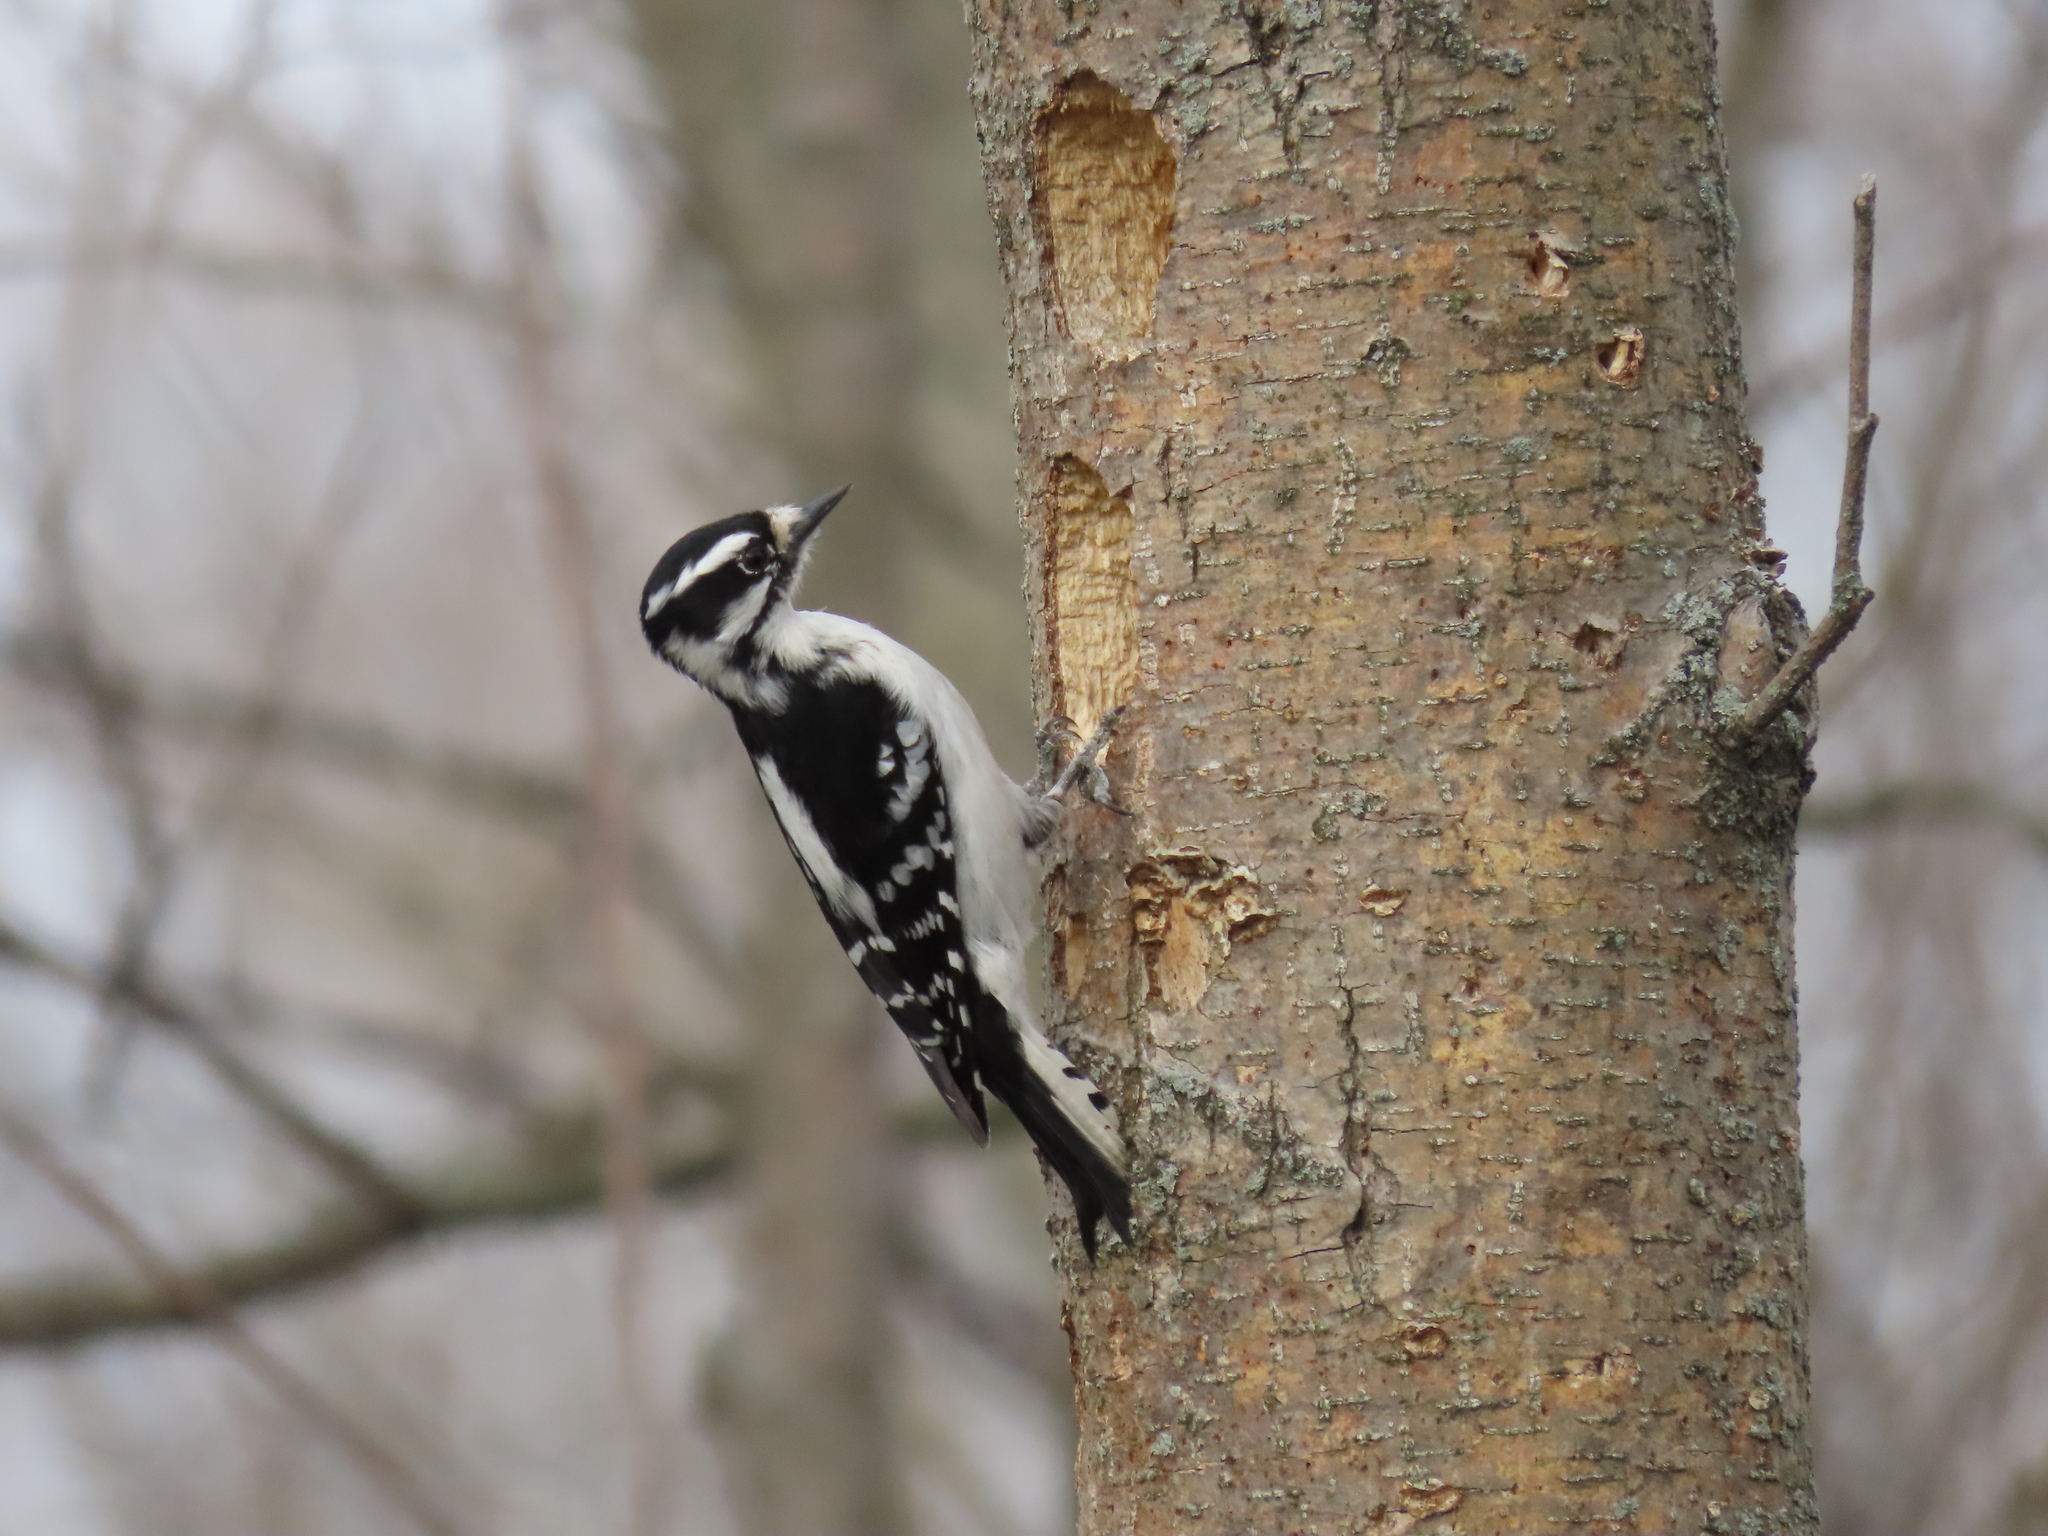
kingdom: Animalia
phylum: Chordata
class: Aves
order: Piciformes
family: Picidae
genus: Dryobates
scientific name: Dryobates pubescens
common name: Downy woodpecker
